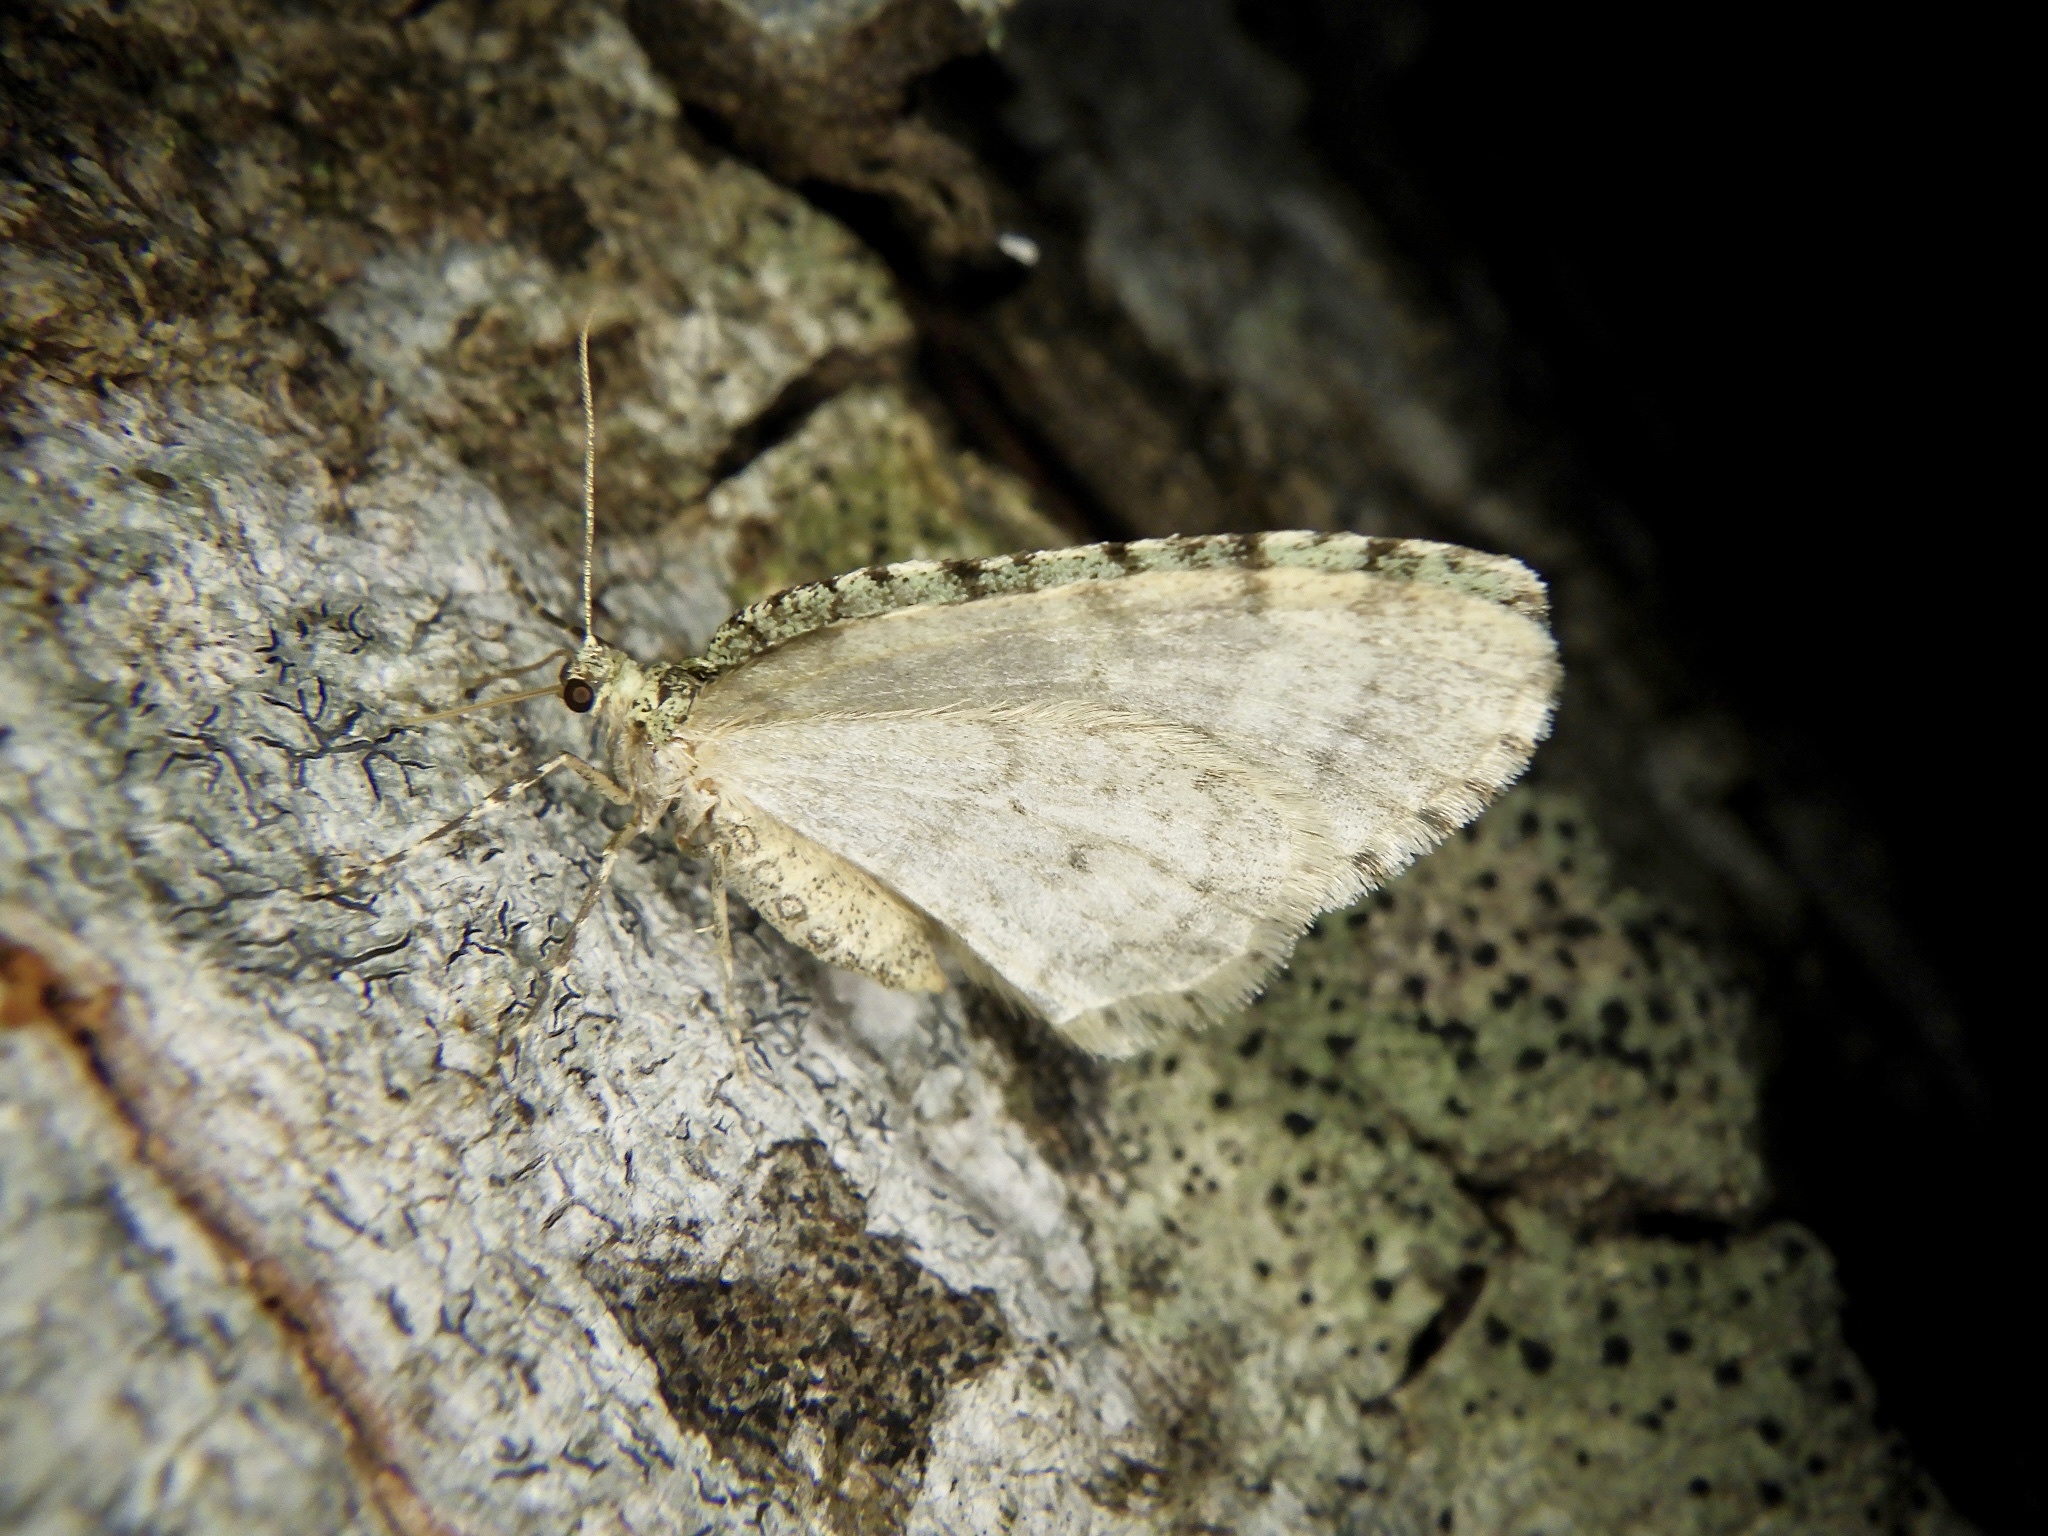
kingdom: Animalia
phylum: Arthropoda
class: Insecta
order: Lepidoptera
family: Geometridae
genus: Epirrita
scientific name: Epirrita viridipurpurescens
